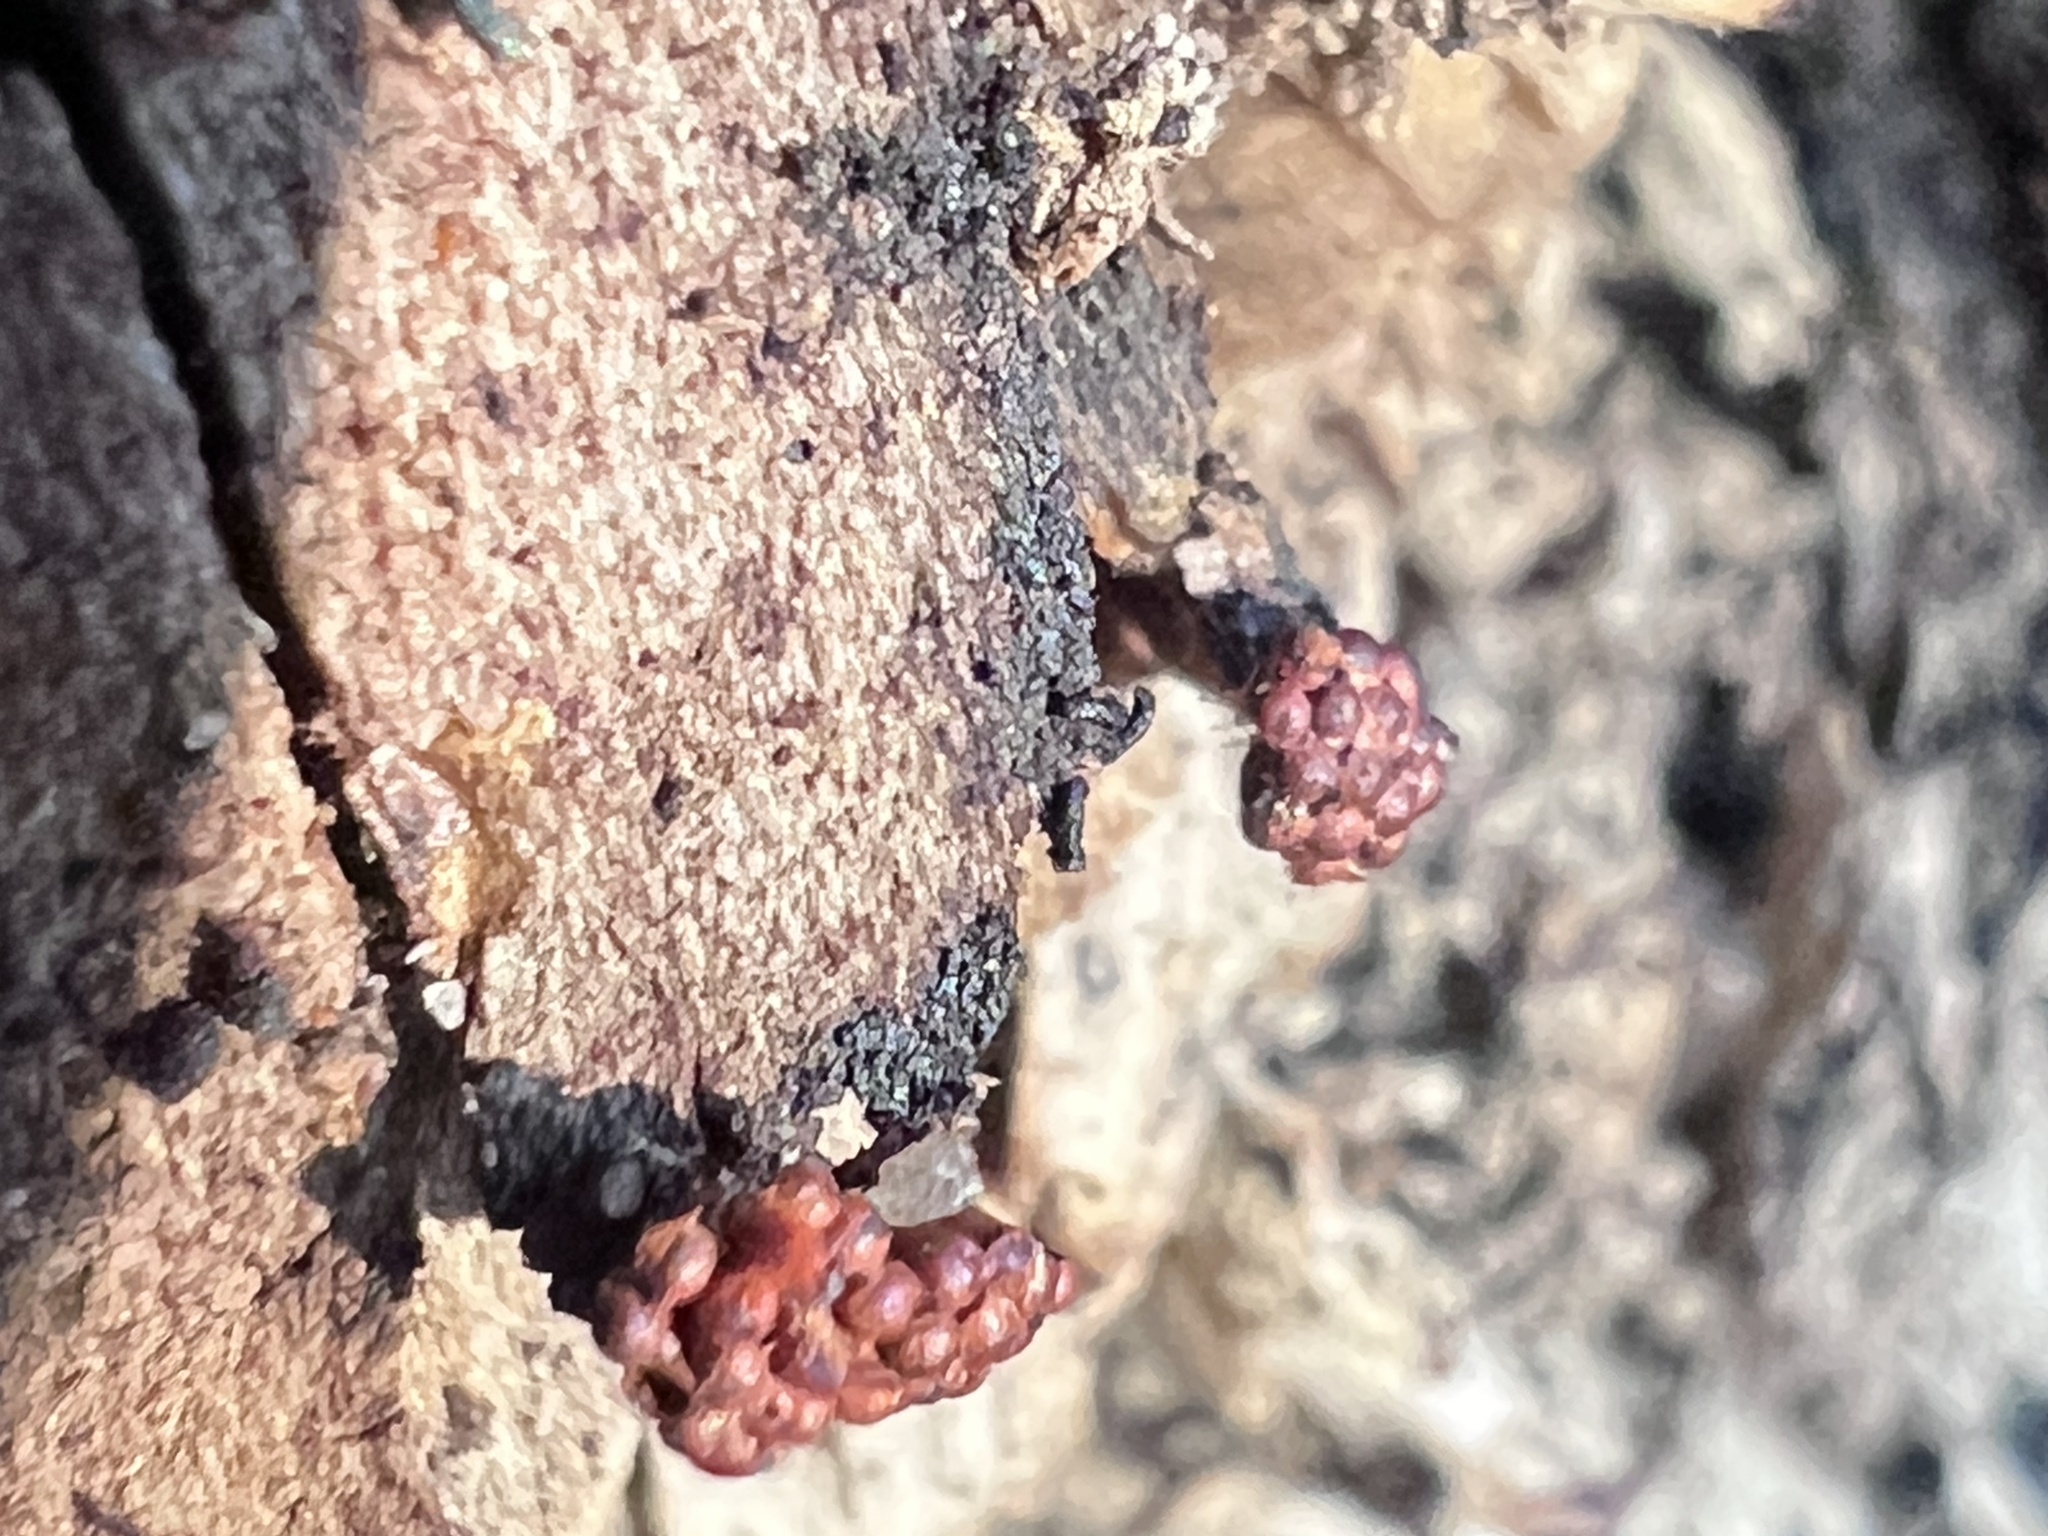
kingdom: Protozoa
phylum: Mycetozoa
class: Myxomycetes
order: Trichiales
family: Trichiaceae
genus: Metatrichia
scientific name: Metatrichia vesparia
